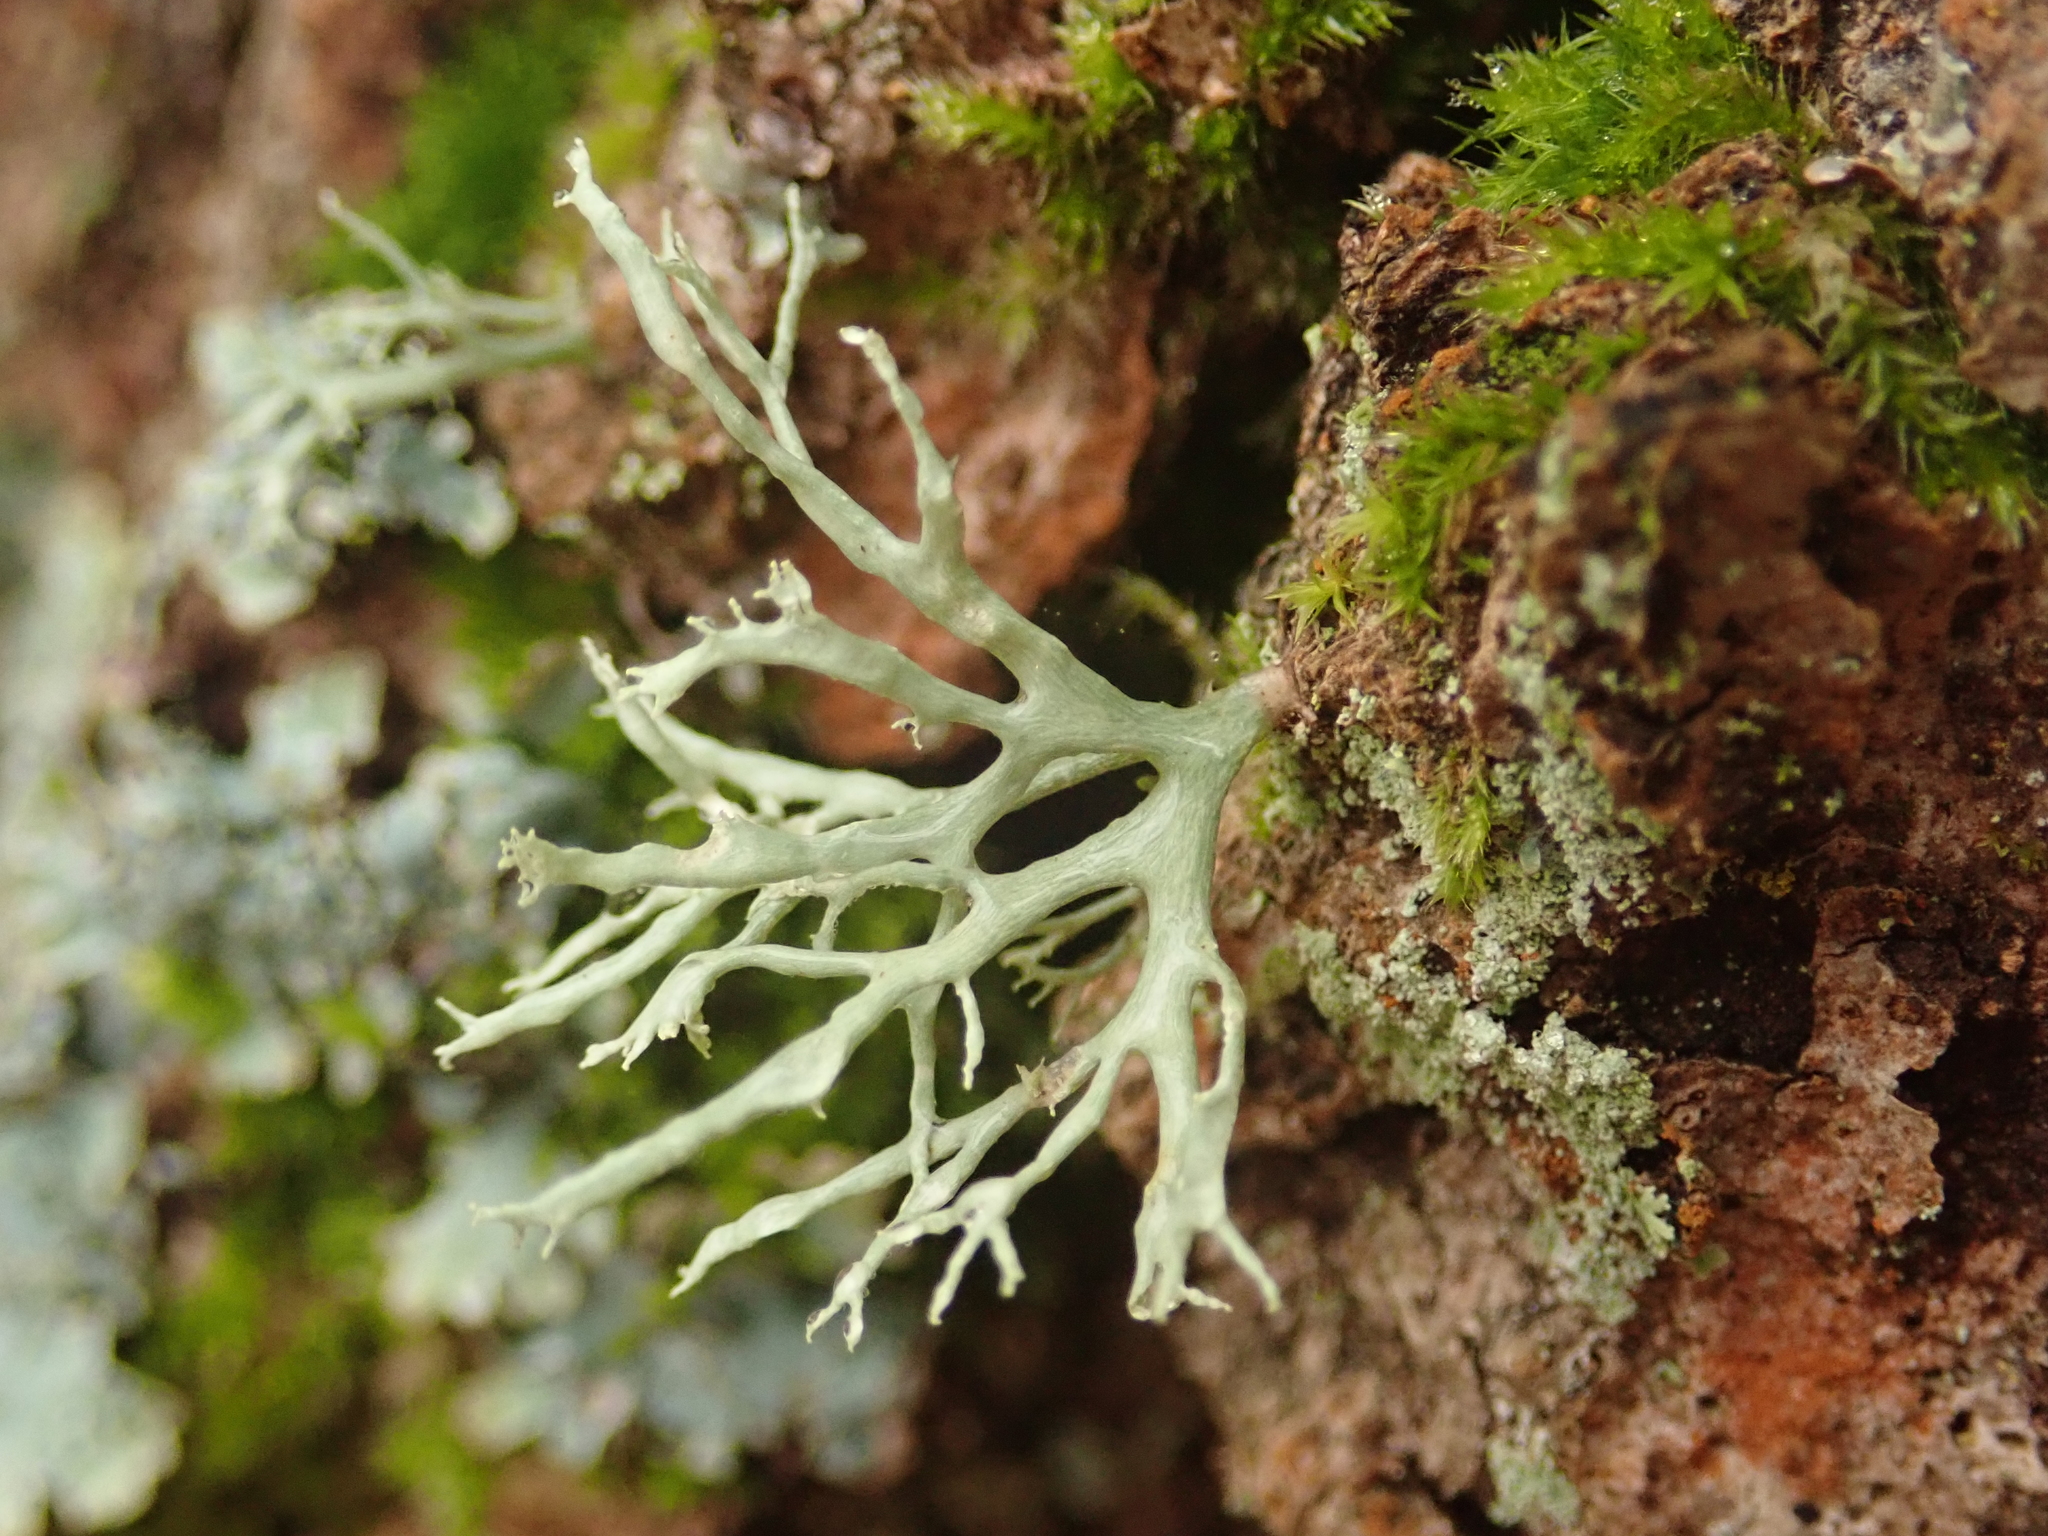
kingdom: Fungi
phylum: Ascomycota
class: Lecanoromycetes
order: Lecanorales
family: Ramalinaceae
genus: Ramalina
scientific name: Ramalina farinacea
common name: Farinose cartilage lichen
